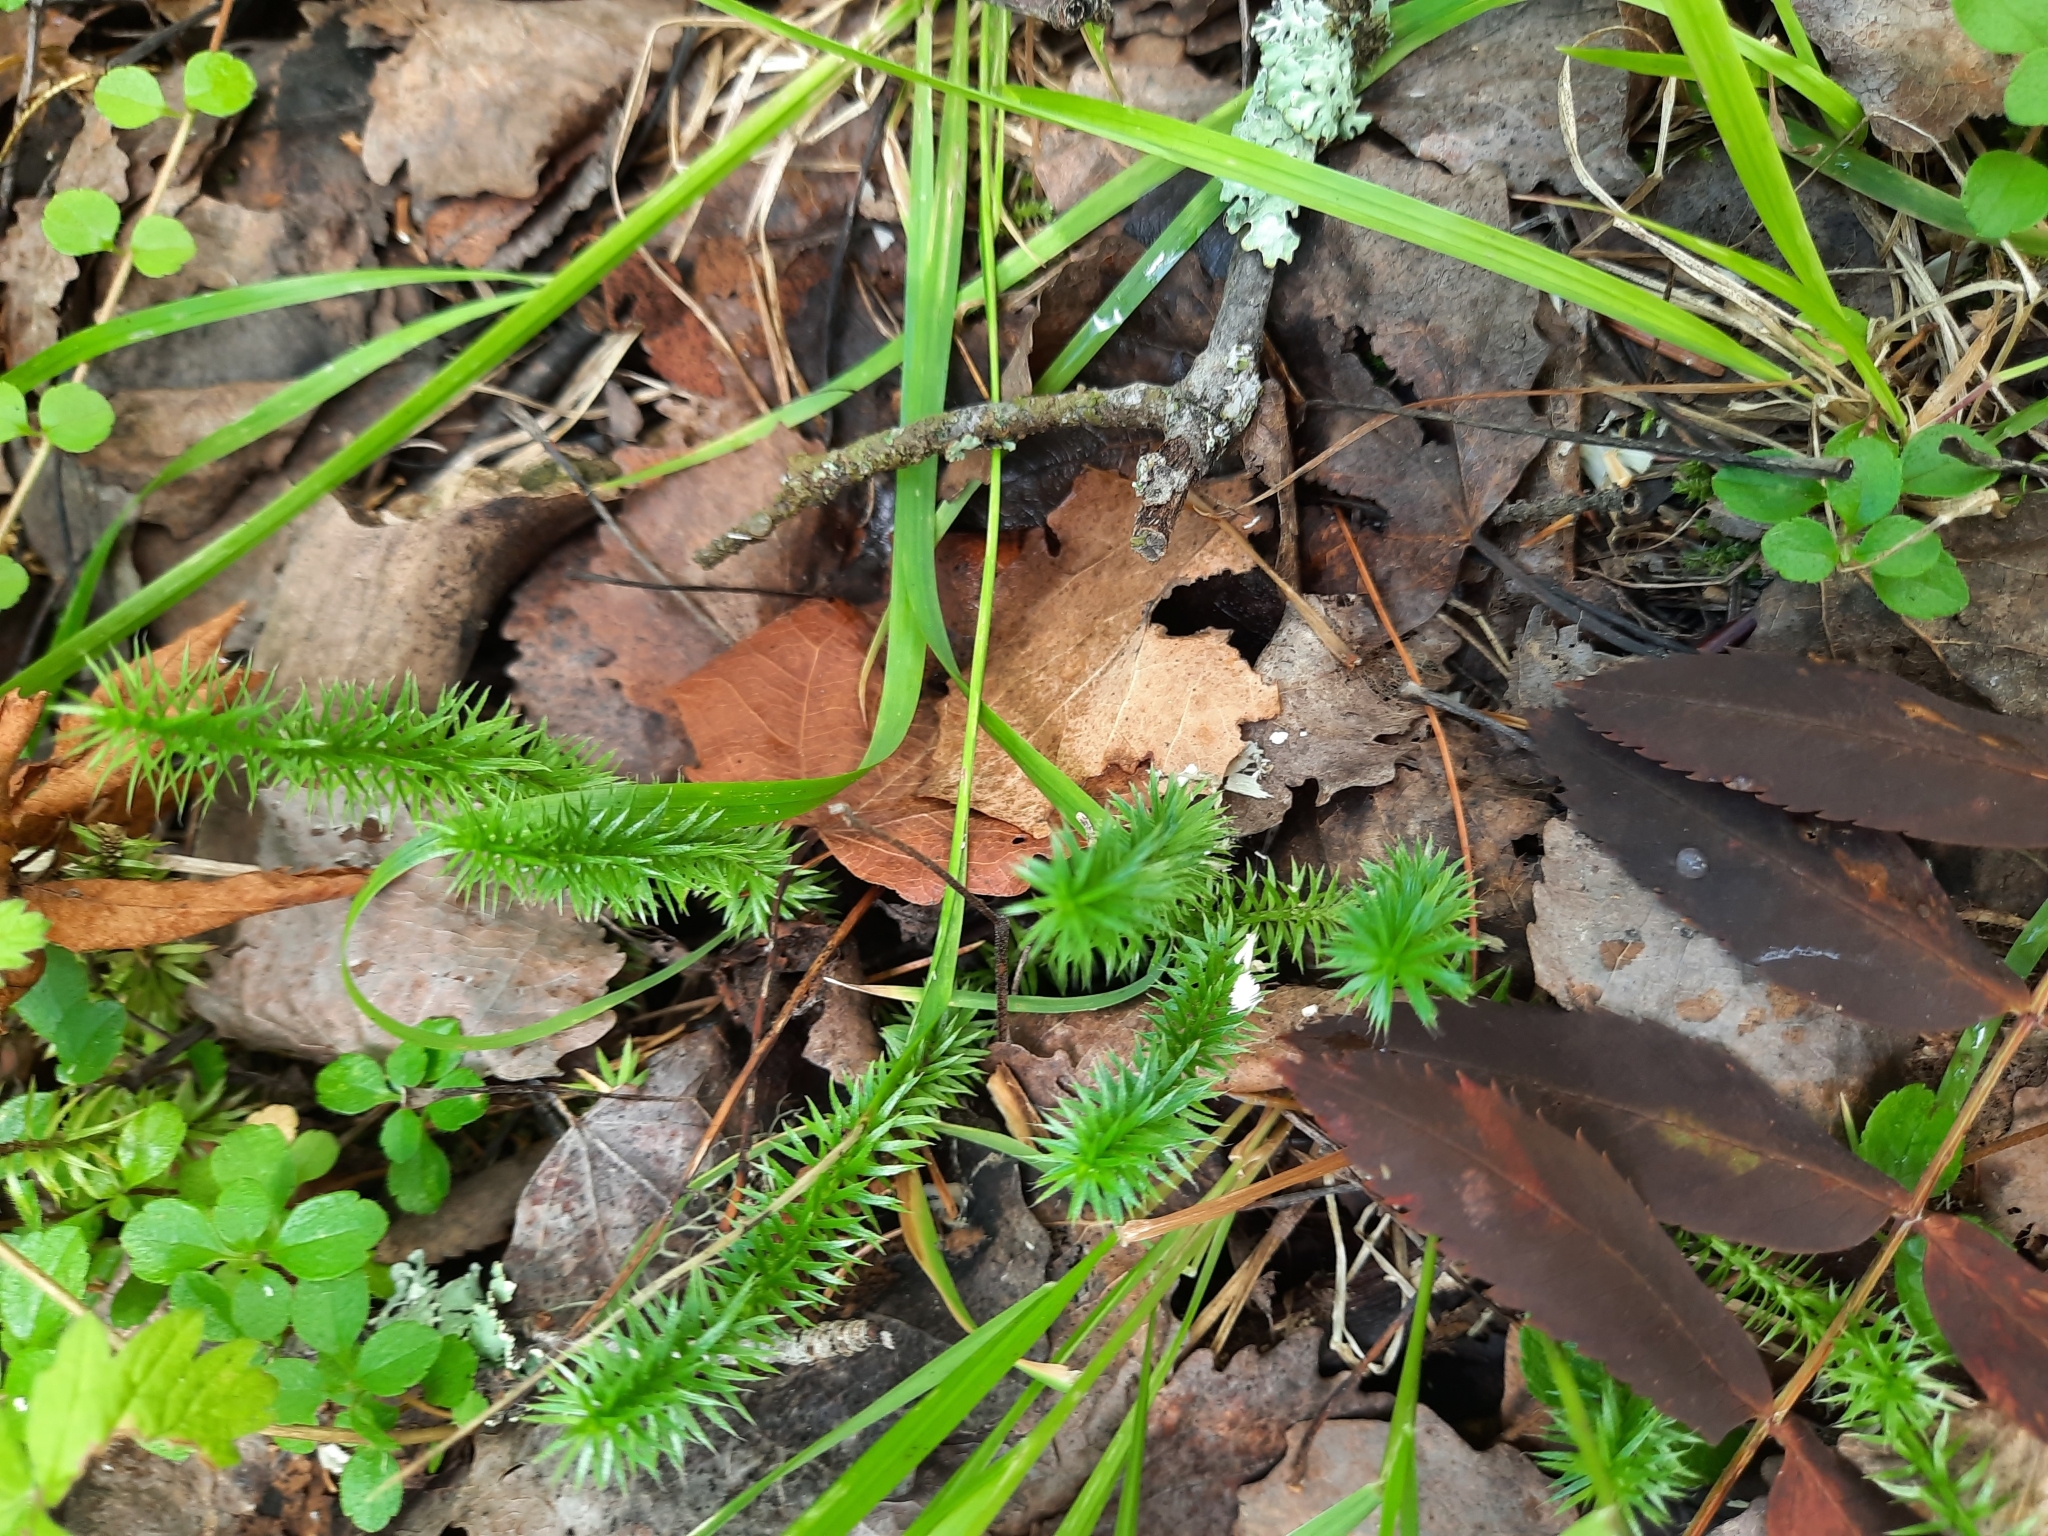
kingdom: Plantae
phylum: Tracheophyta
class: Lycopodiopsida
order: Lycopodiales
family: Lycopodiaceae
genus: Spinulum
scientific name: Spinulum annotinum
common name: Interrupted club-moss
